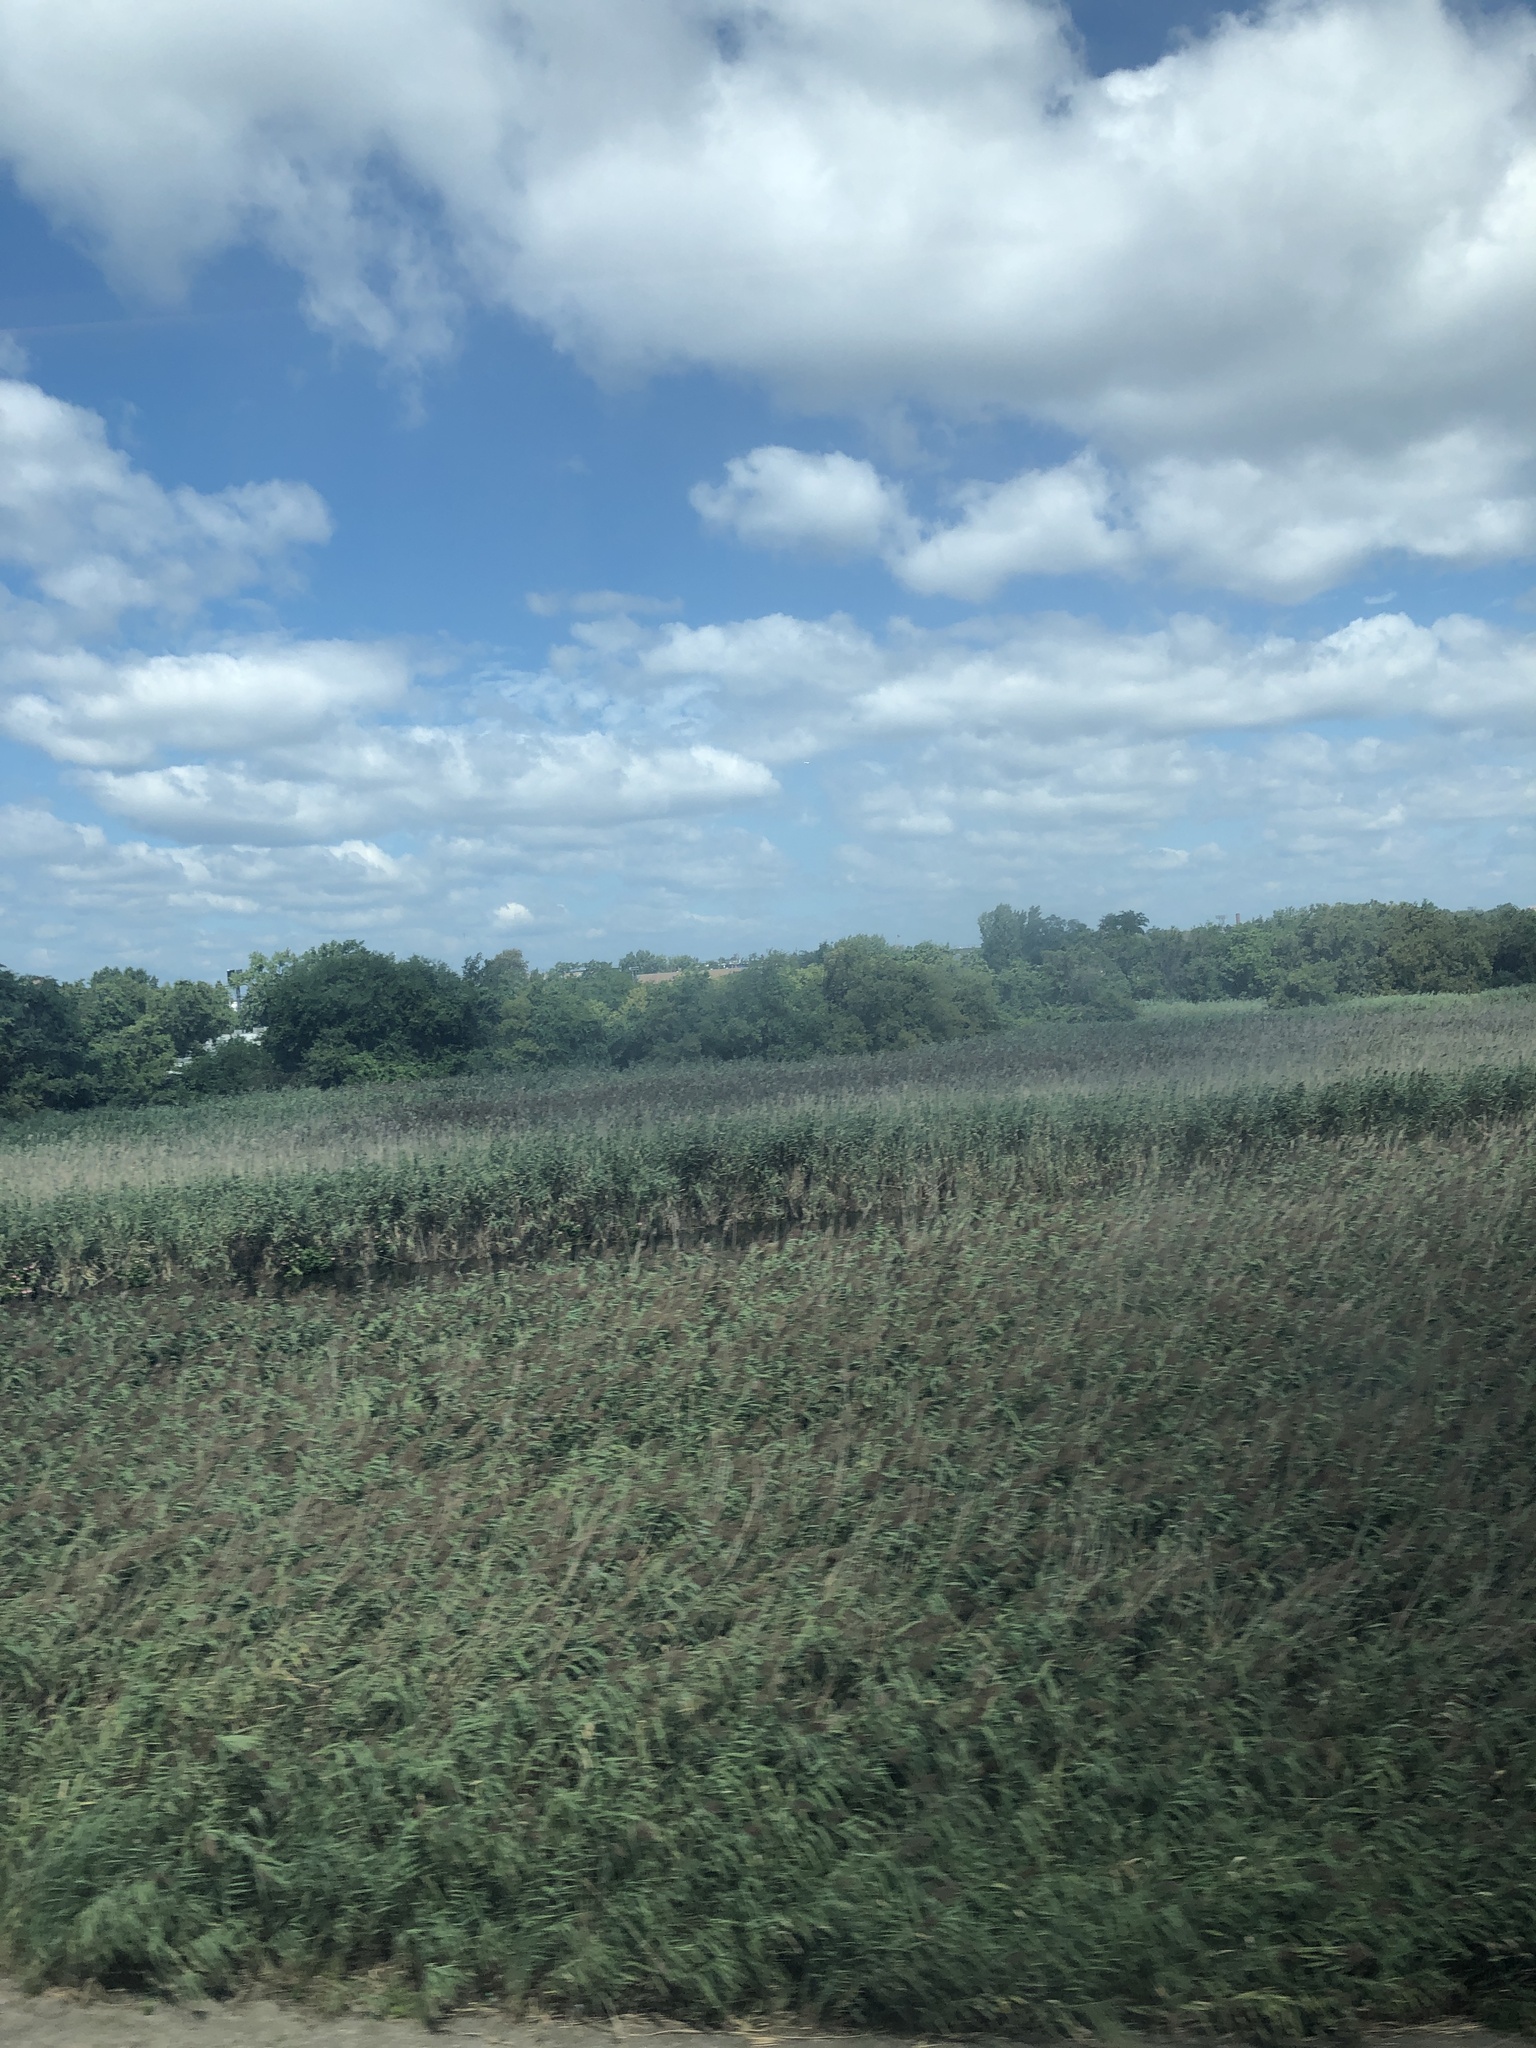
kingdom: Plantae
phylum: Tracheophyta
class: Liliopsida
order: Poales
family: Poaceae
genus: Phragmites
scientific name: Phragmites australis
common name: Common reed
